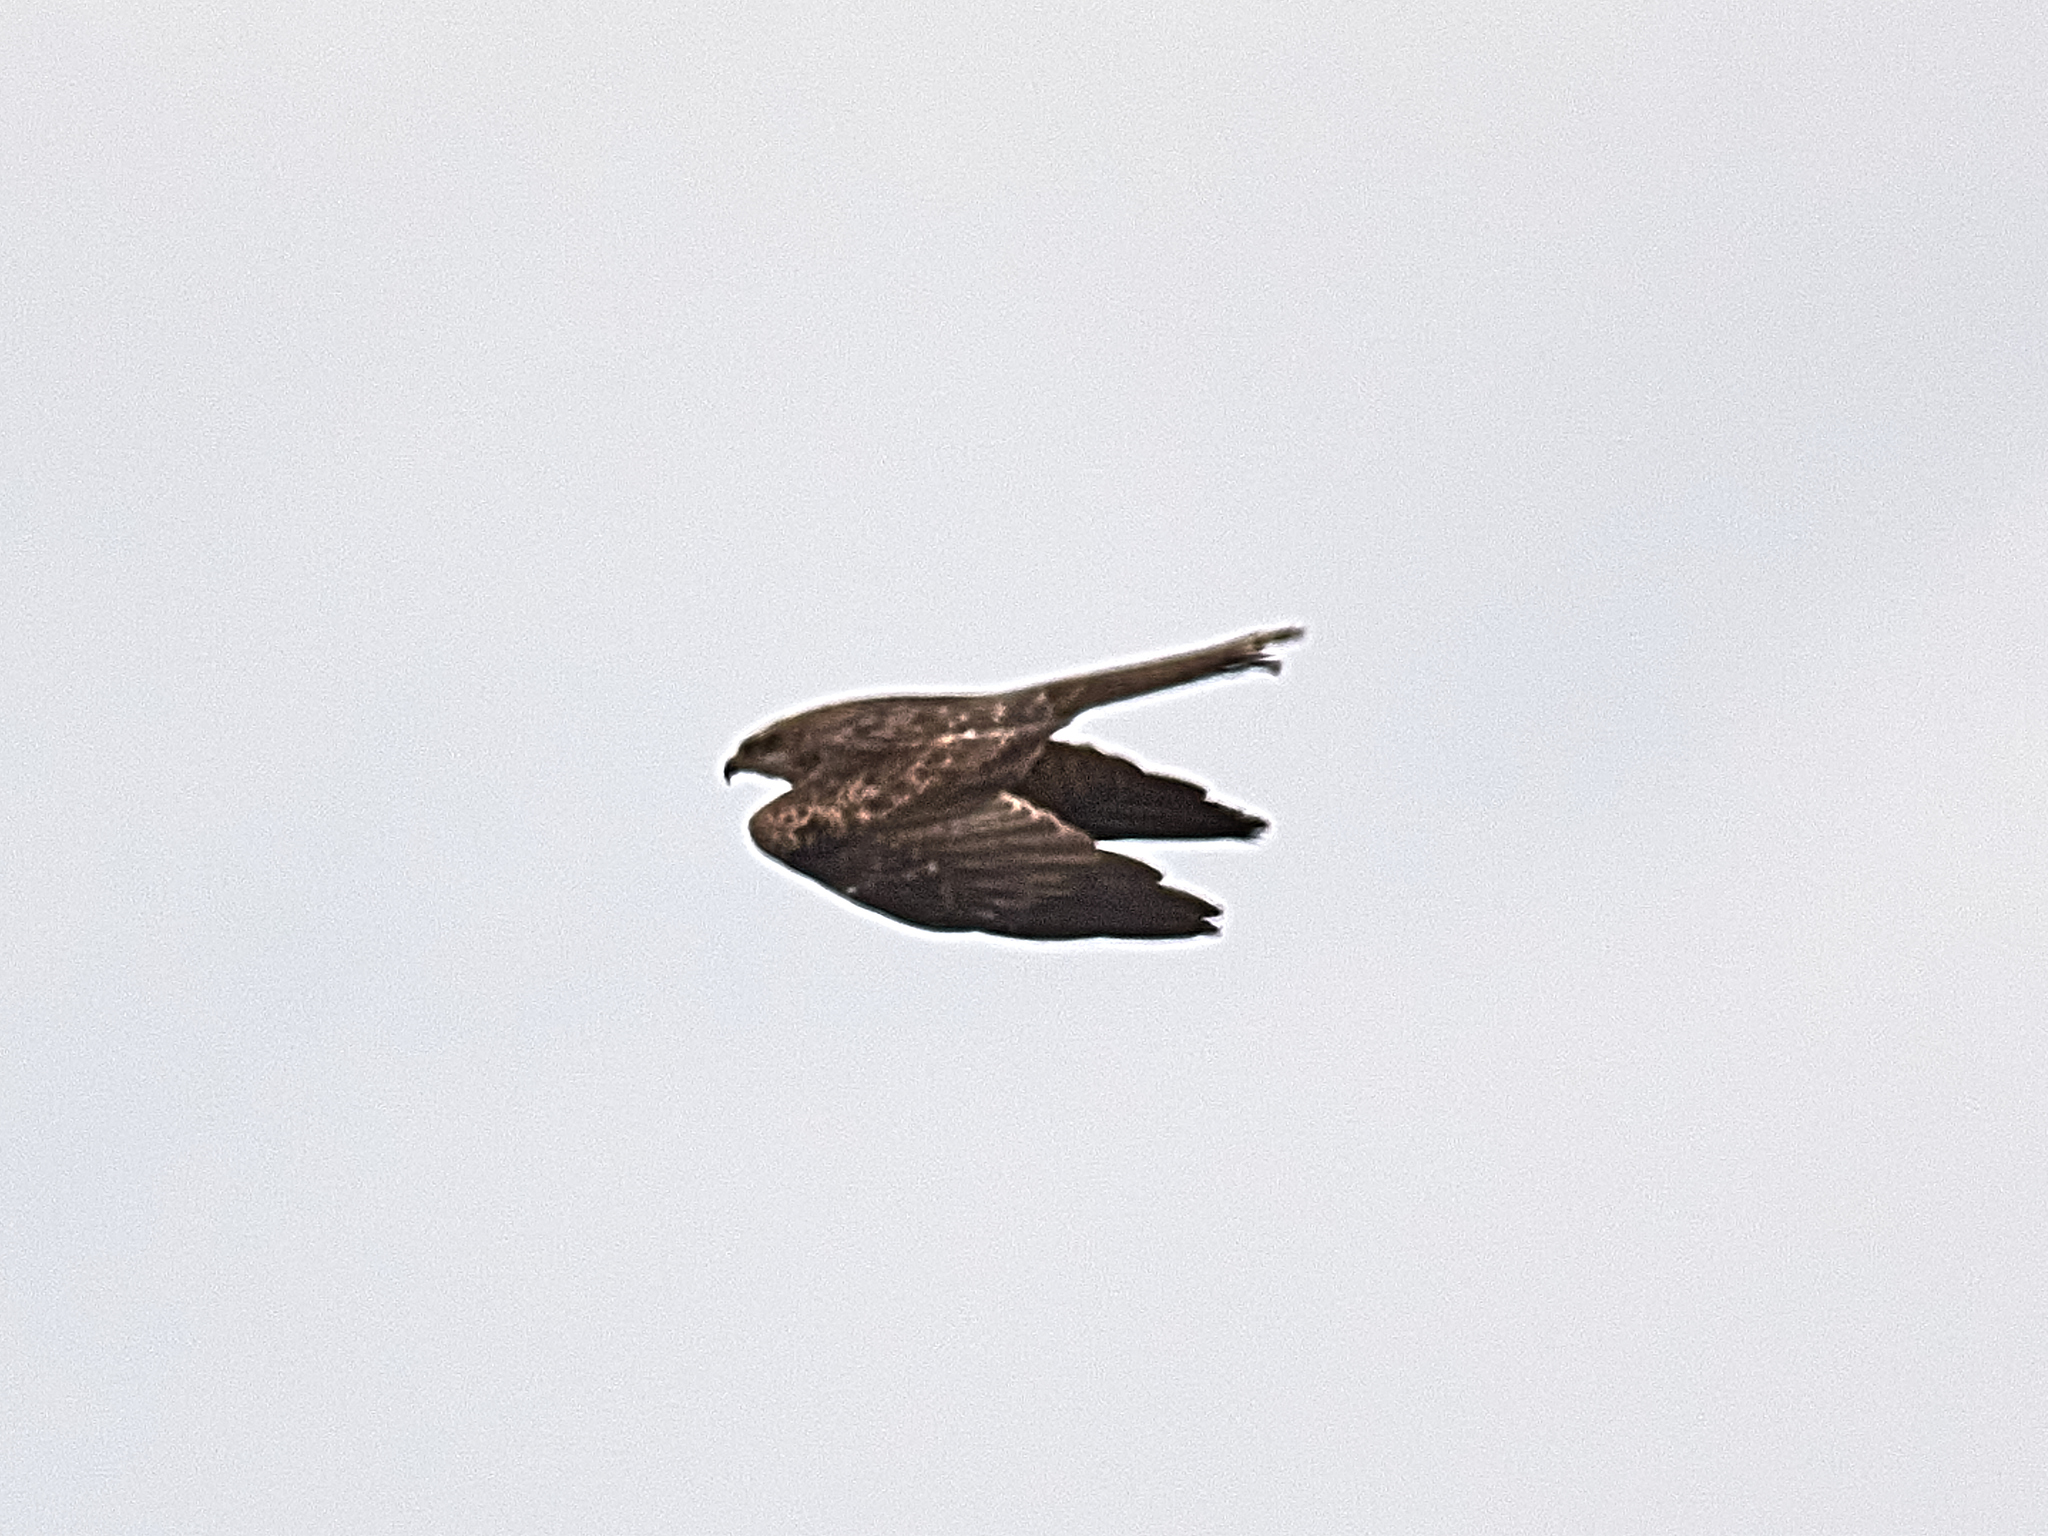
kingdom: Animalia
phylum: Chordata
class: Aves
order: Accipitriformes
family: Accipitridae
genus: Milvus
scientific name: Milvus migrans
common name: Black kite
